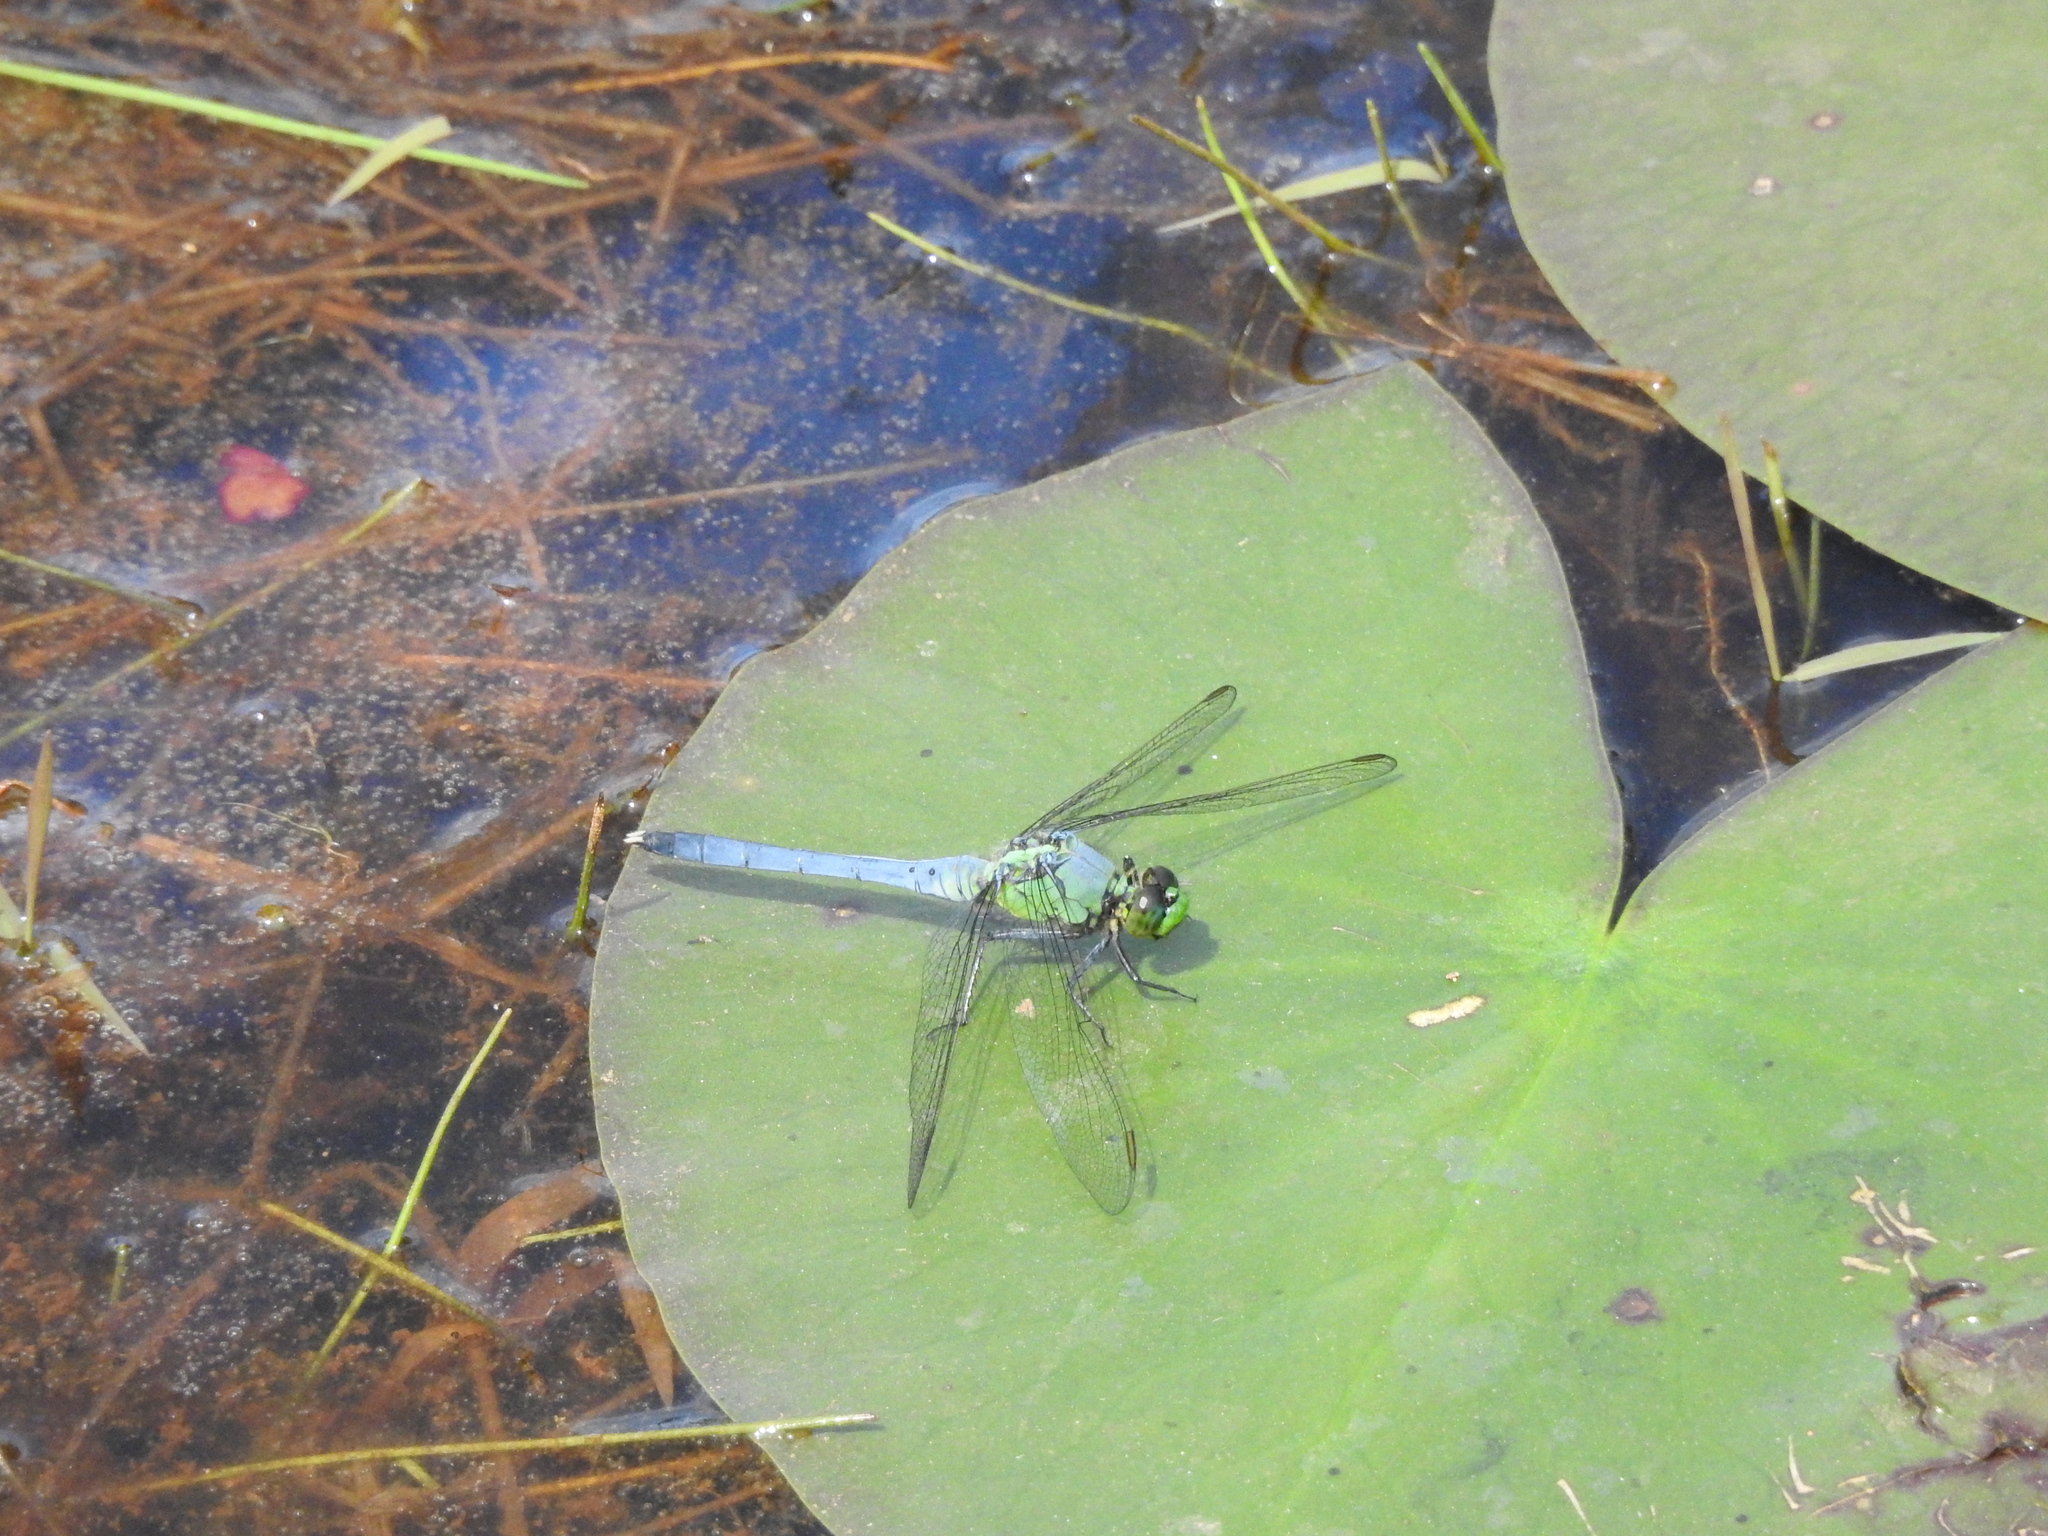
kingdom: Animalia
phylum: Arthropoda
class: Insecta
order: Odonata
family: Libellulidae
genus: Erythemis
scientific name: Erythemis simplicicollis
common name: Eastern pondhawk
